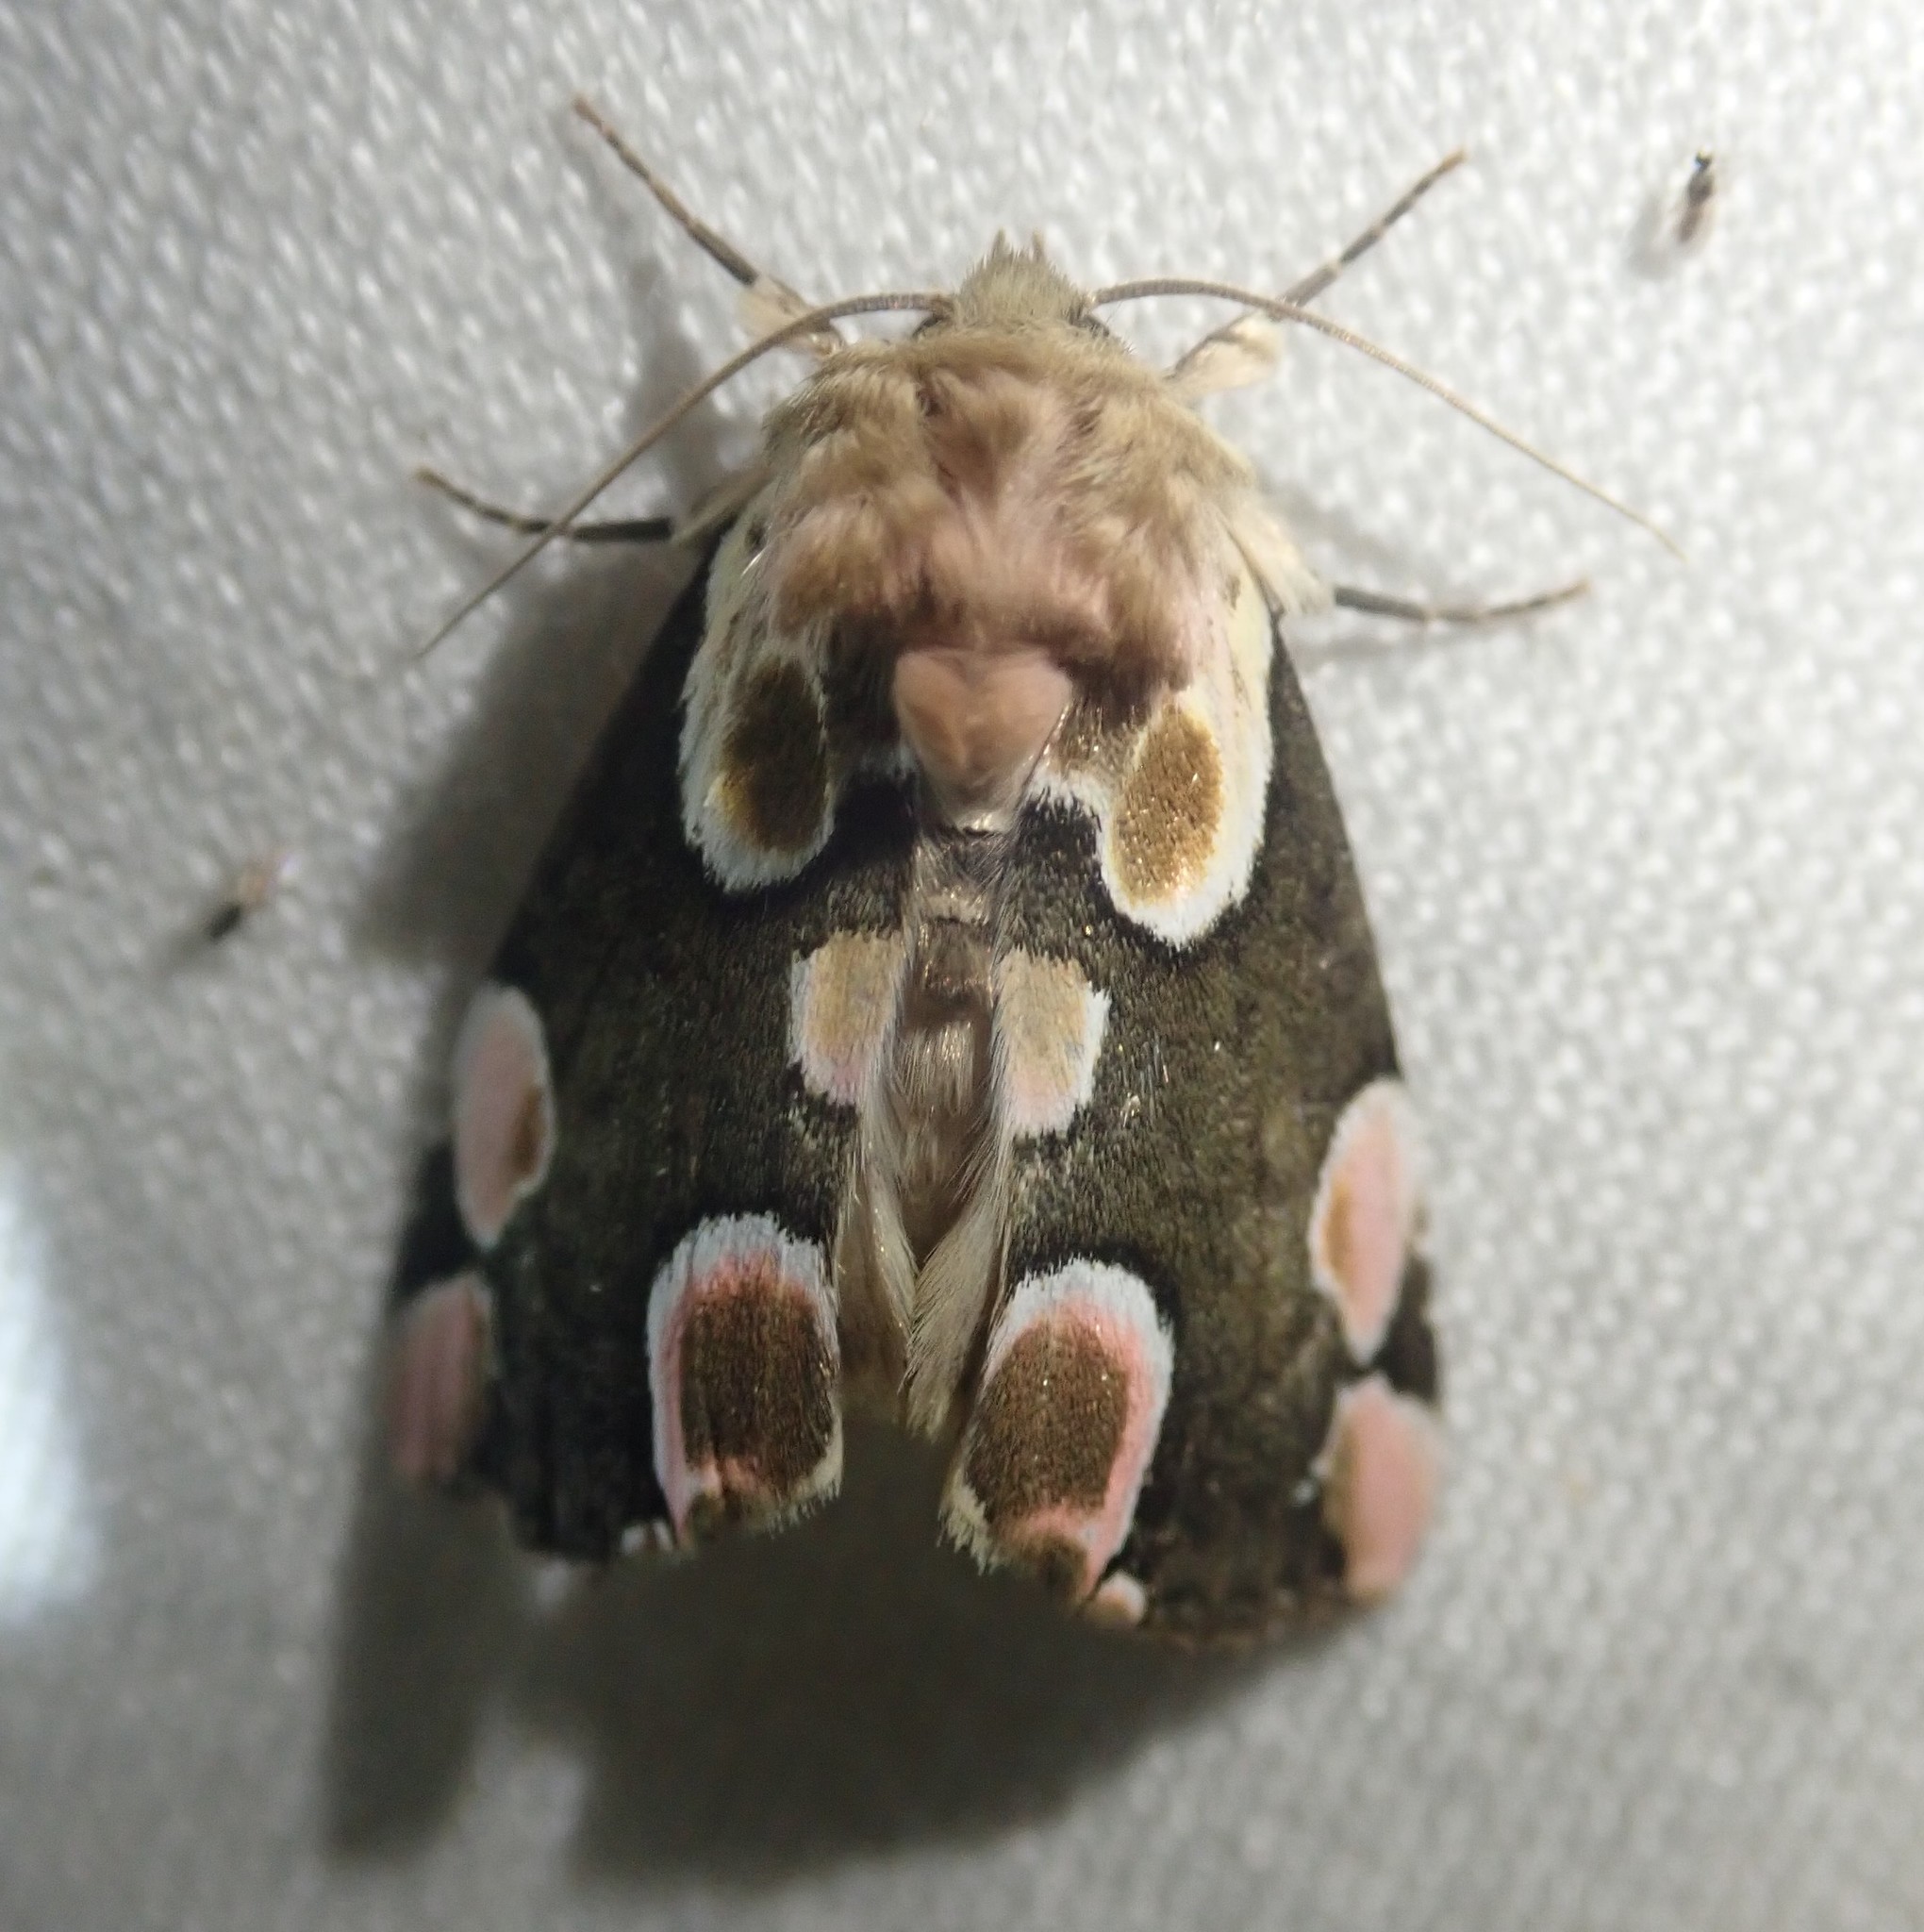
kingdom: Animalia
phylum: Arthropoda
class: Insecta
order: Lepidoptera
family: Drepanidae
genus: Thyatira
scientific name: Thyatira batis
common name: Peach blossom
